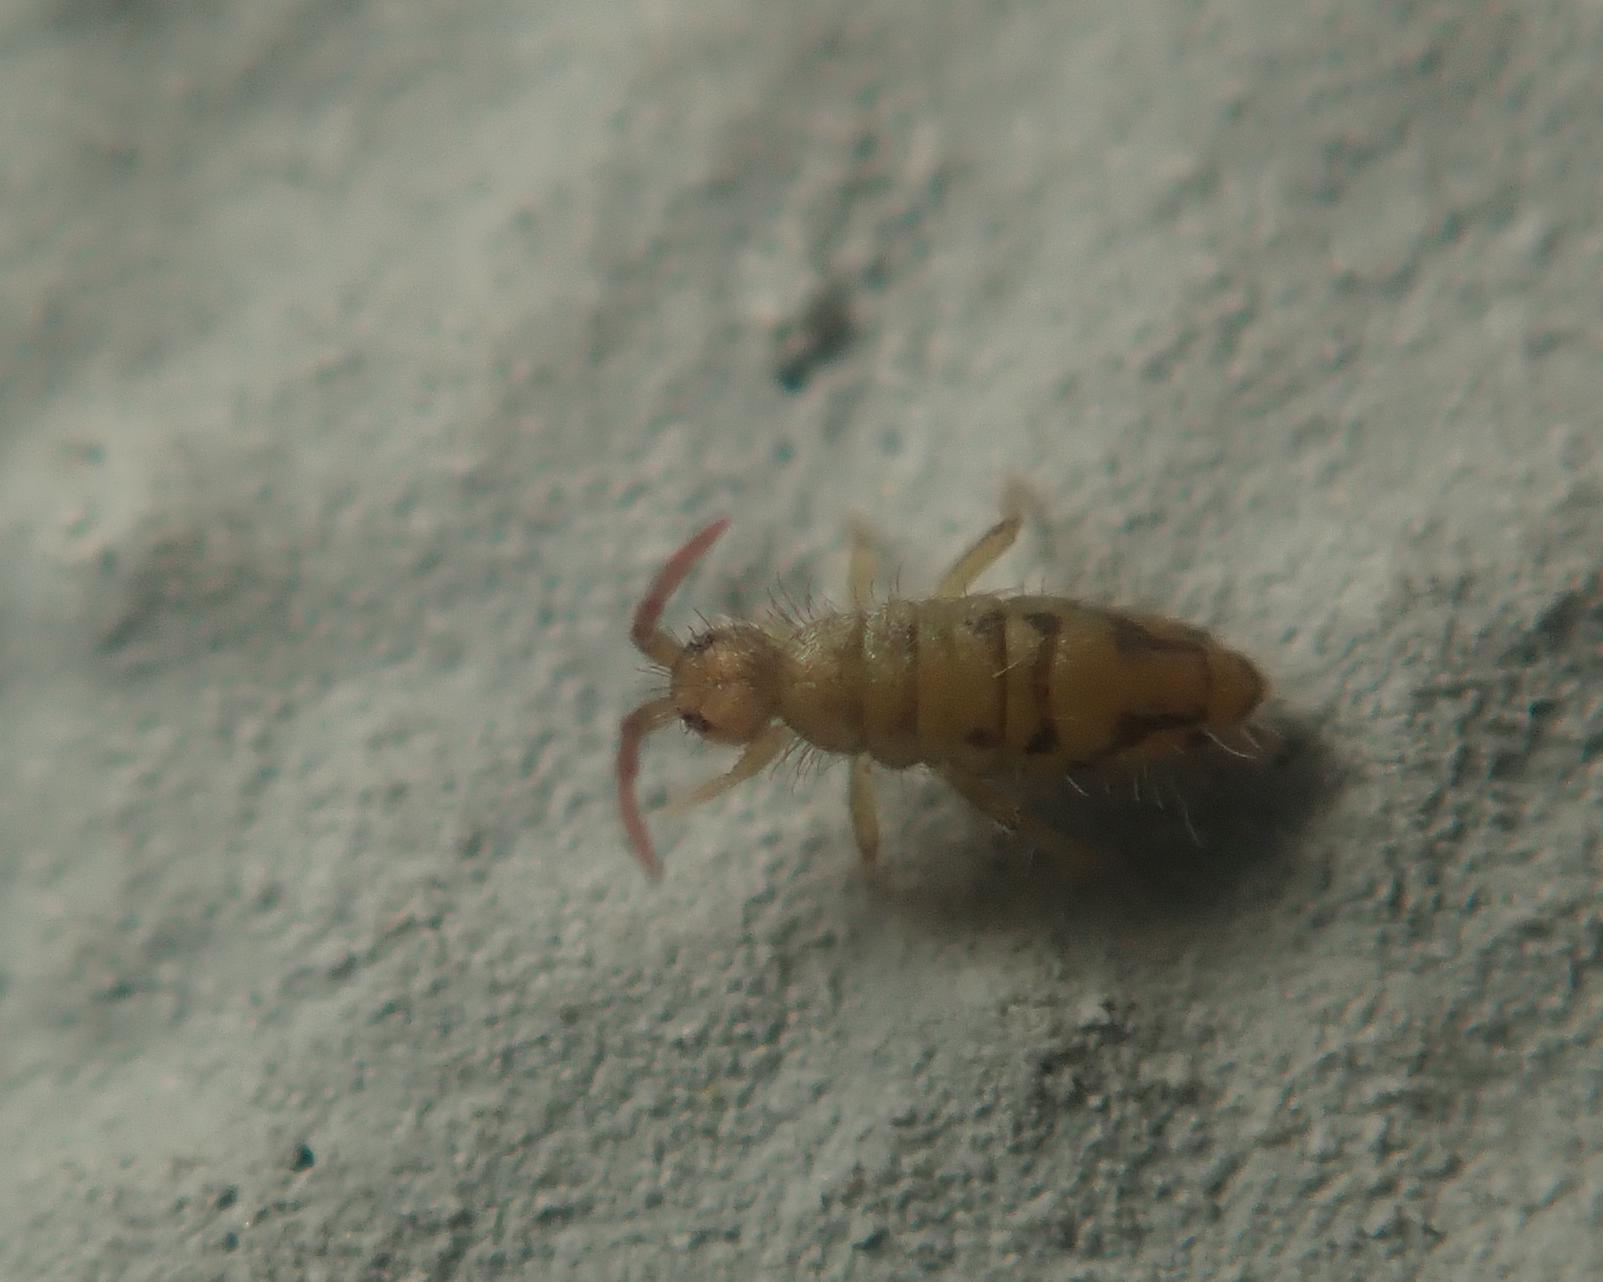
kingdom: Animalia
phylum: Arthropoda
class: Collembola
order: Entomobryomorpha
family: Entomobryidae
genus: Entomobrya
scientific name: Entomobrya nivalis
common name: Cosmopolitan springtail
